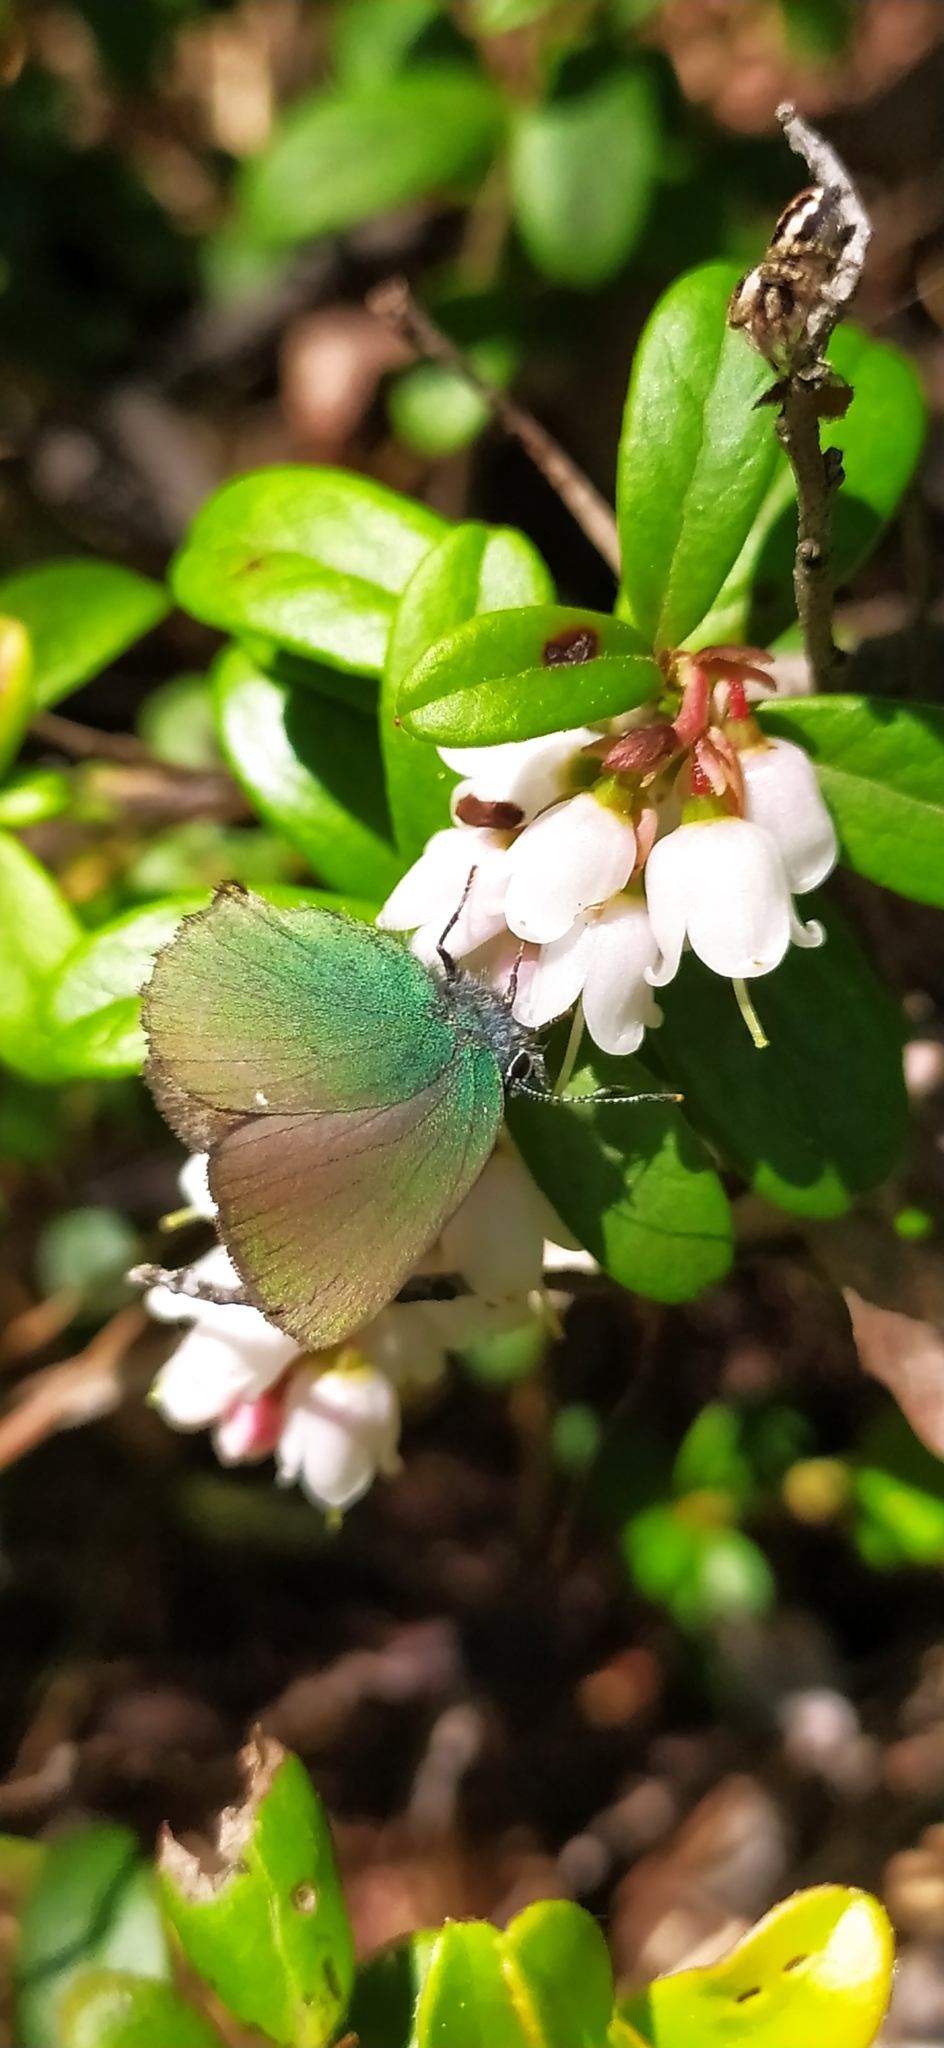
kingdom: Animalia
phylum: Arthropoda
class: Insecta
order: Lepidoptera
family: Lycaenidae
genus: Callophrys
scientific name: Callophrys rubi
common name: Green hairstreak
